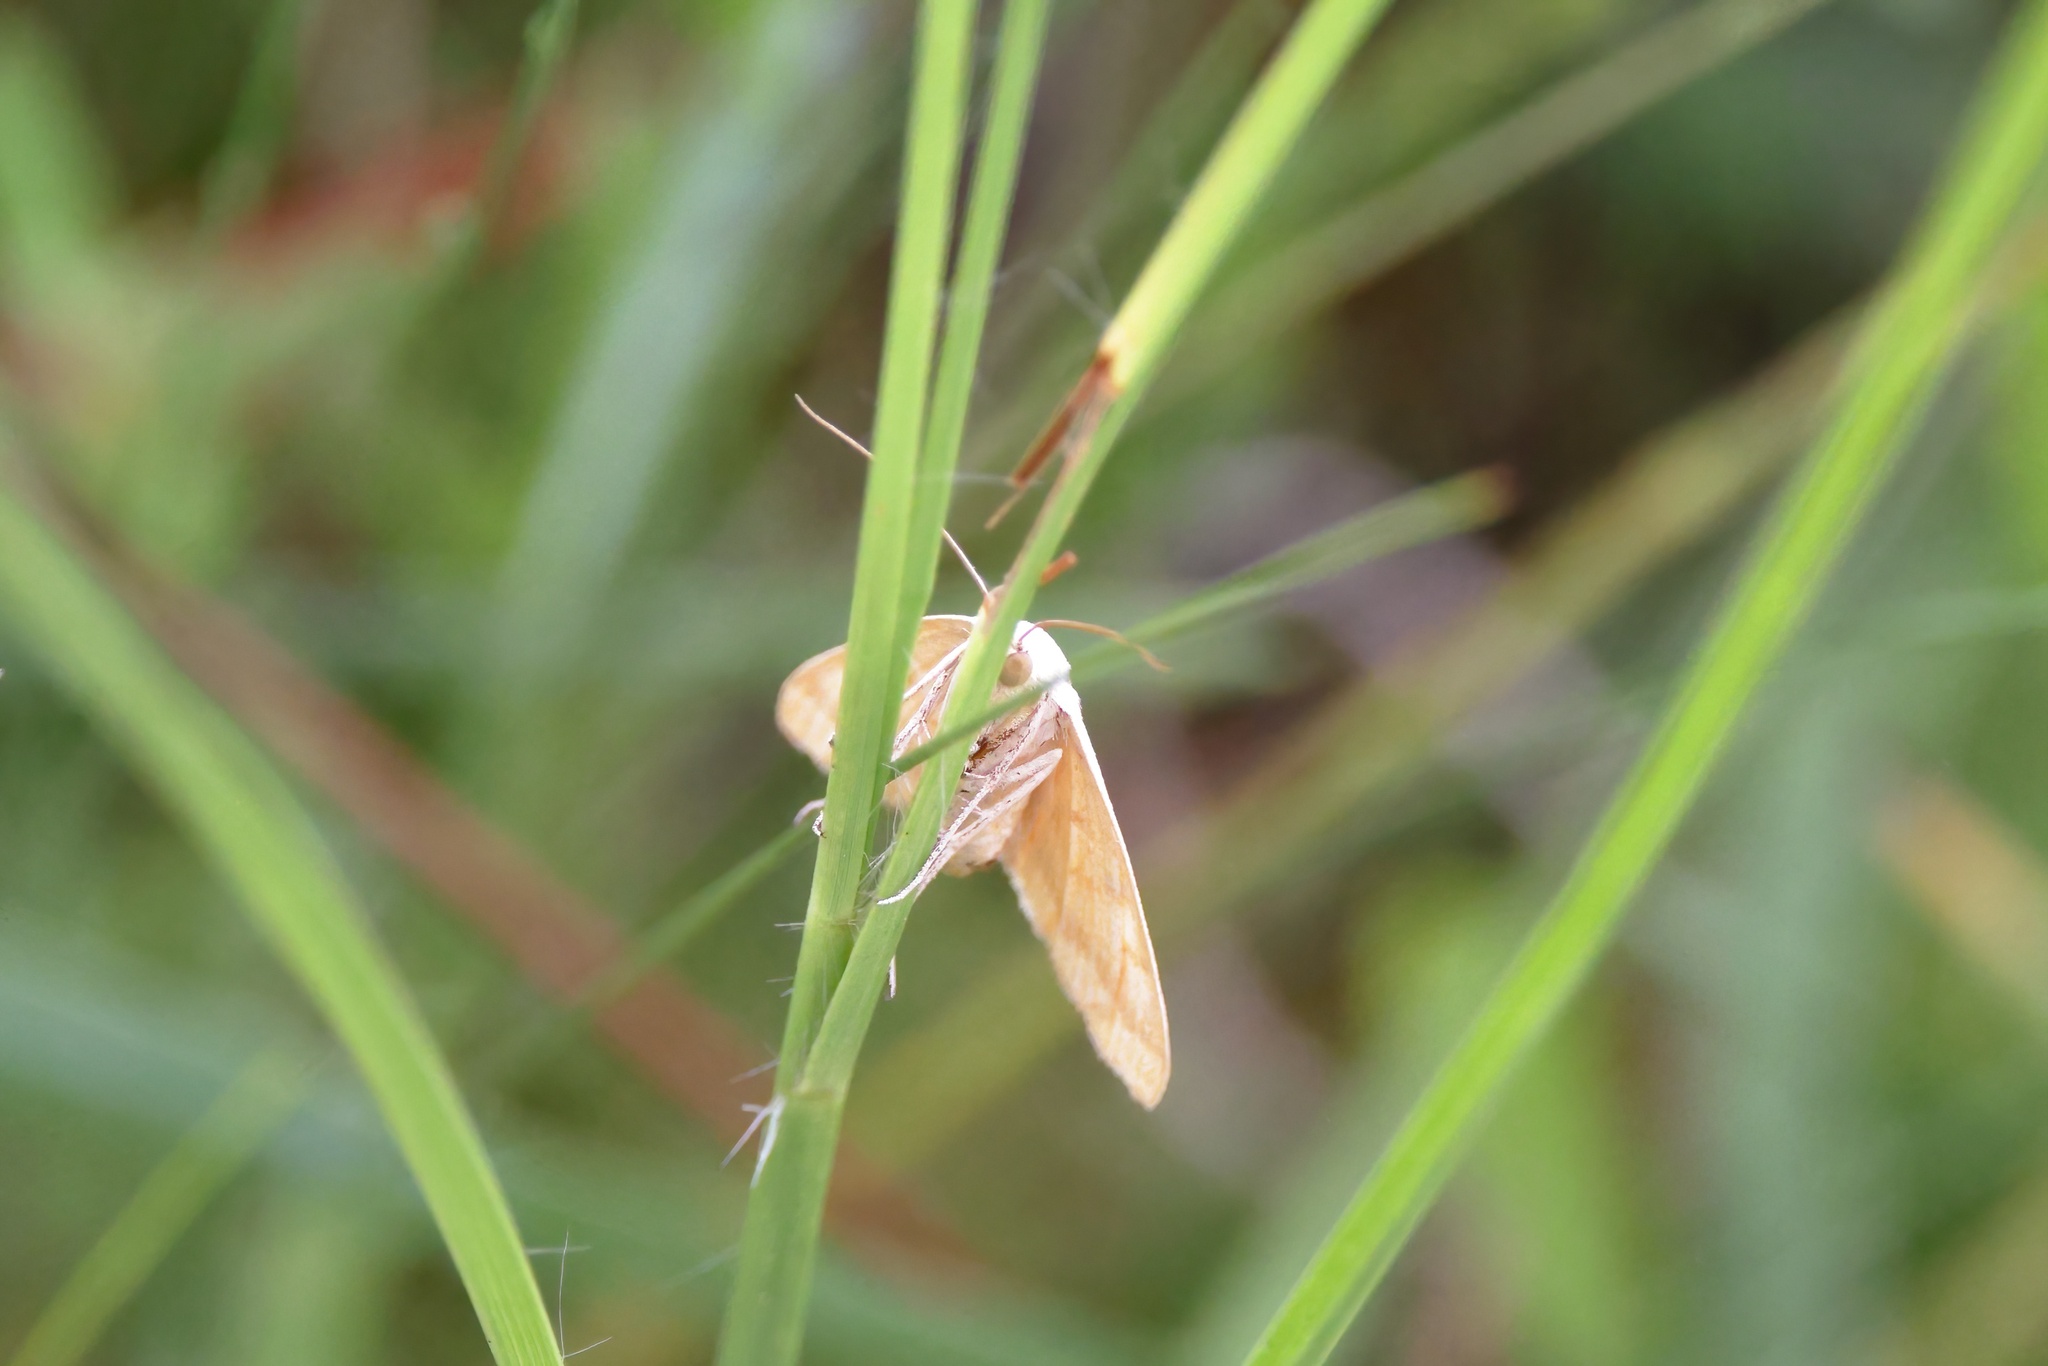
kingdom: Animalia
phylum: Arthropoda
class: Insecta
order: Lepidoptera
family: Erebidae
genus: Caenurgia
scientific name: Caenurgia chloropha
